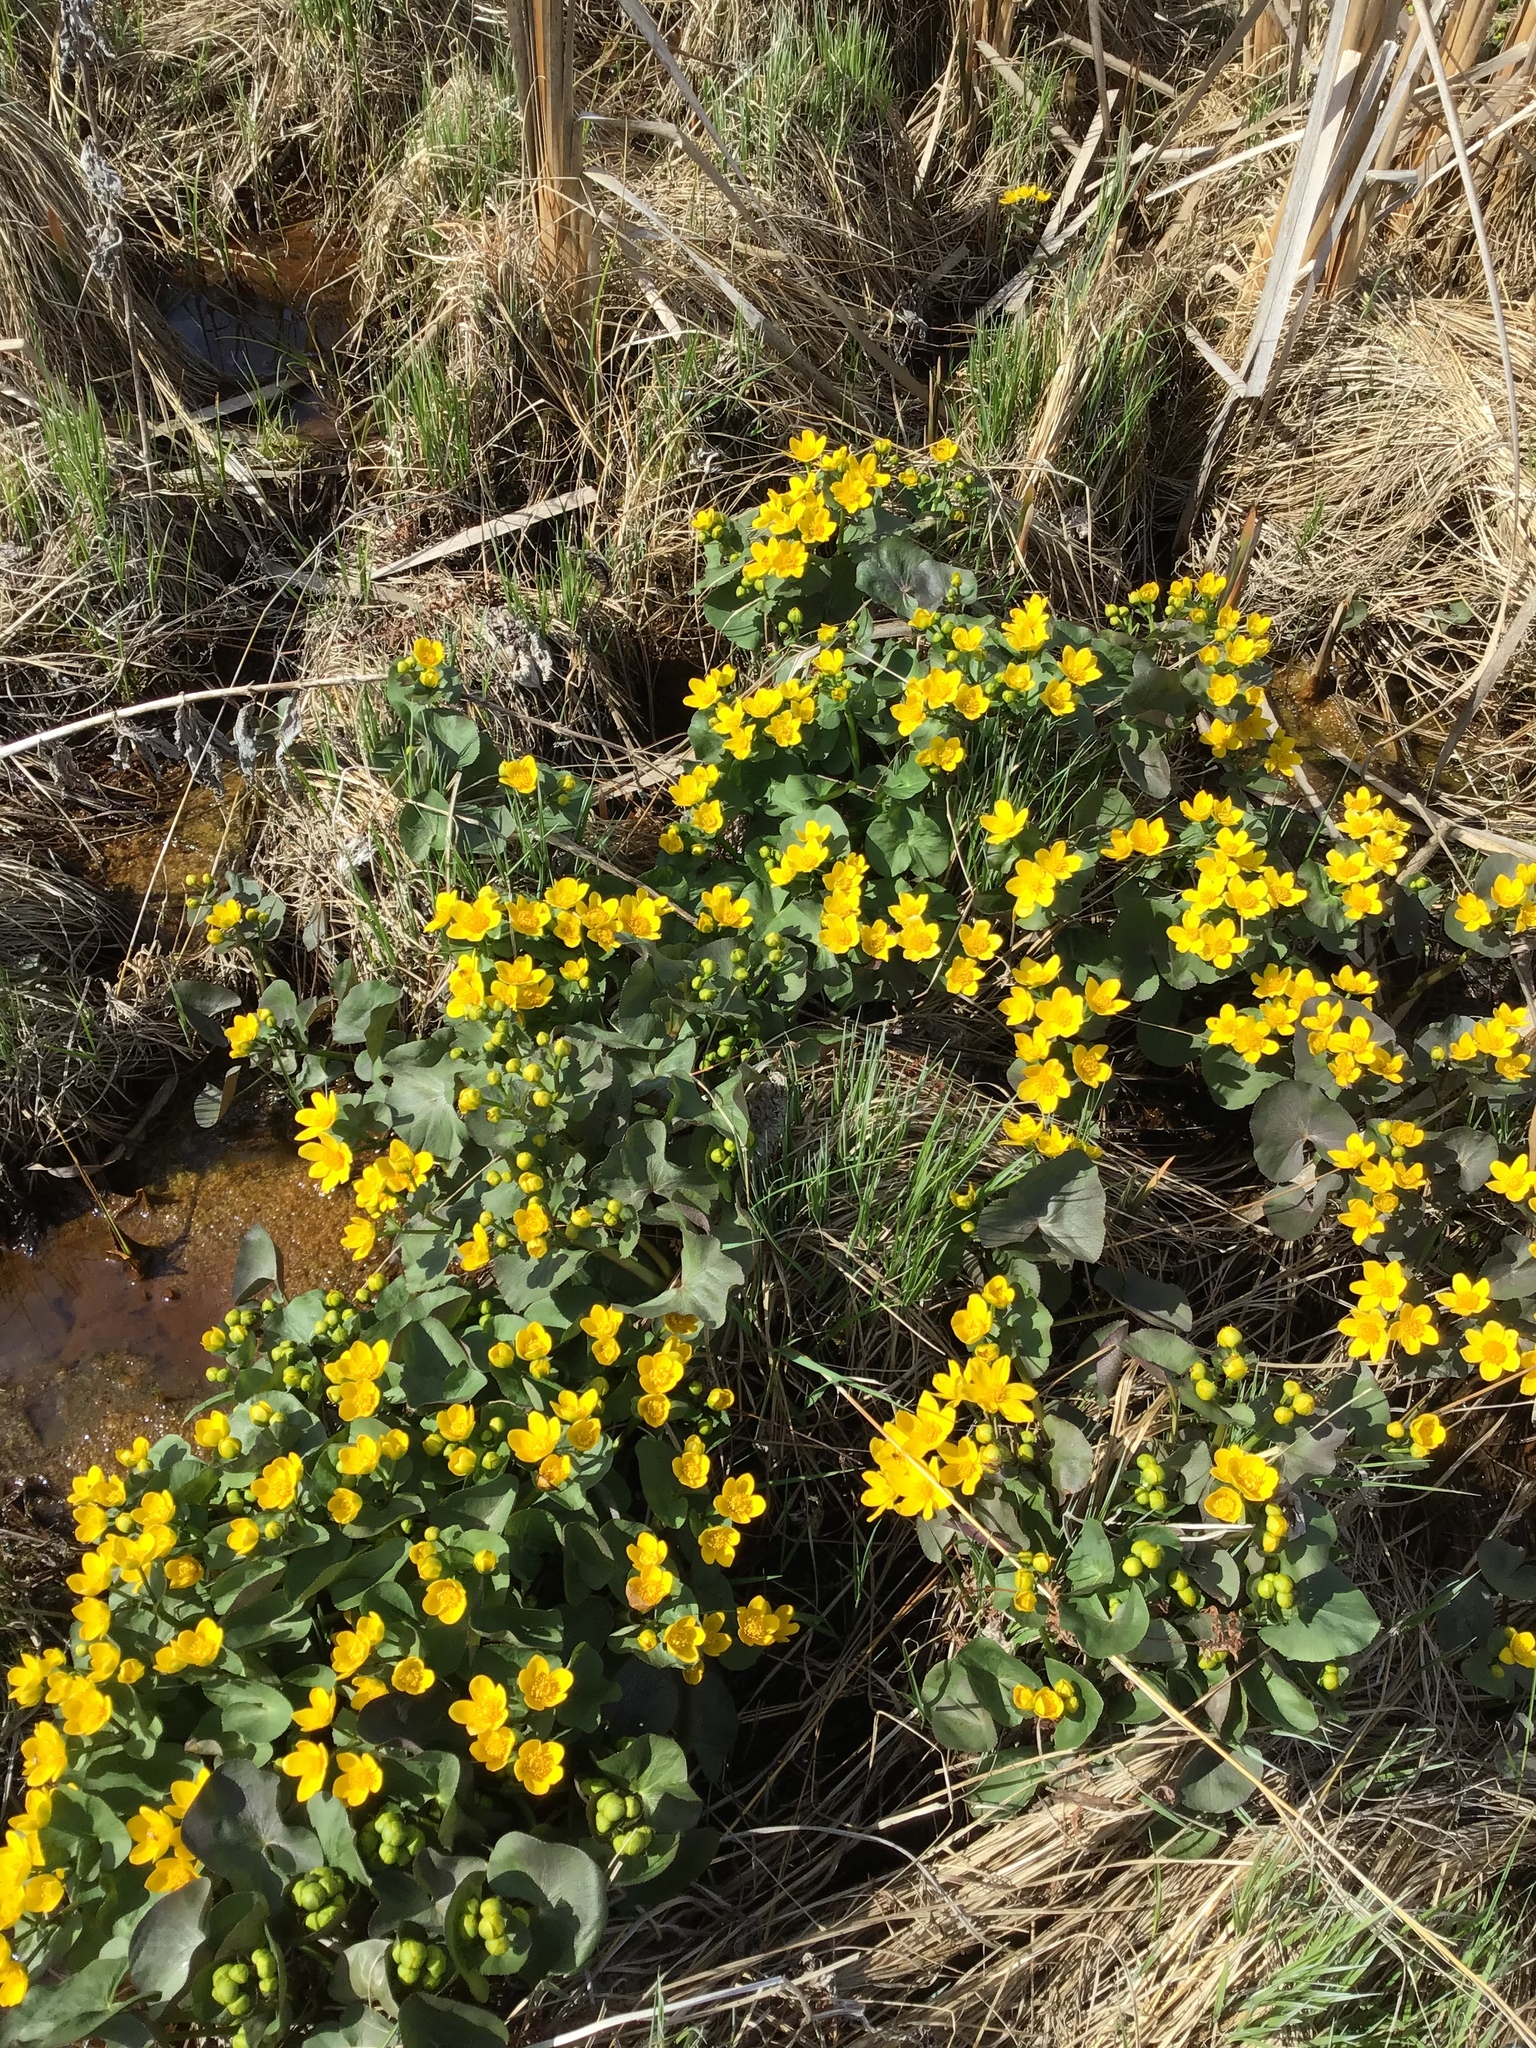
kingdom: Plantae
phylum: Tracheophyta
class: Magnoliopsida
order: Ranunculales
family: Ranunculaceae
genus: Caltha
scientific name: Caltha palustris
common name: Marsh marigold
